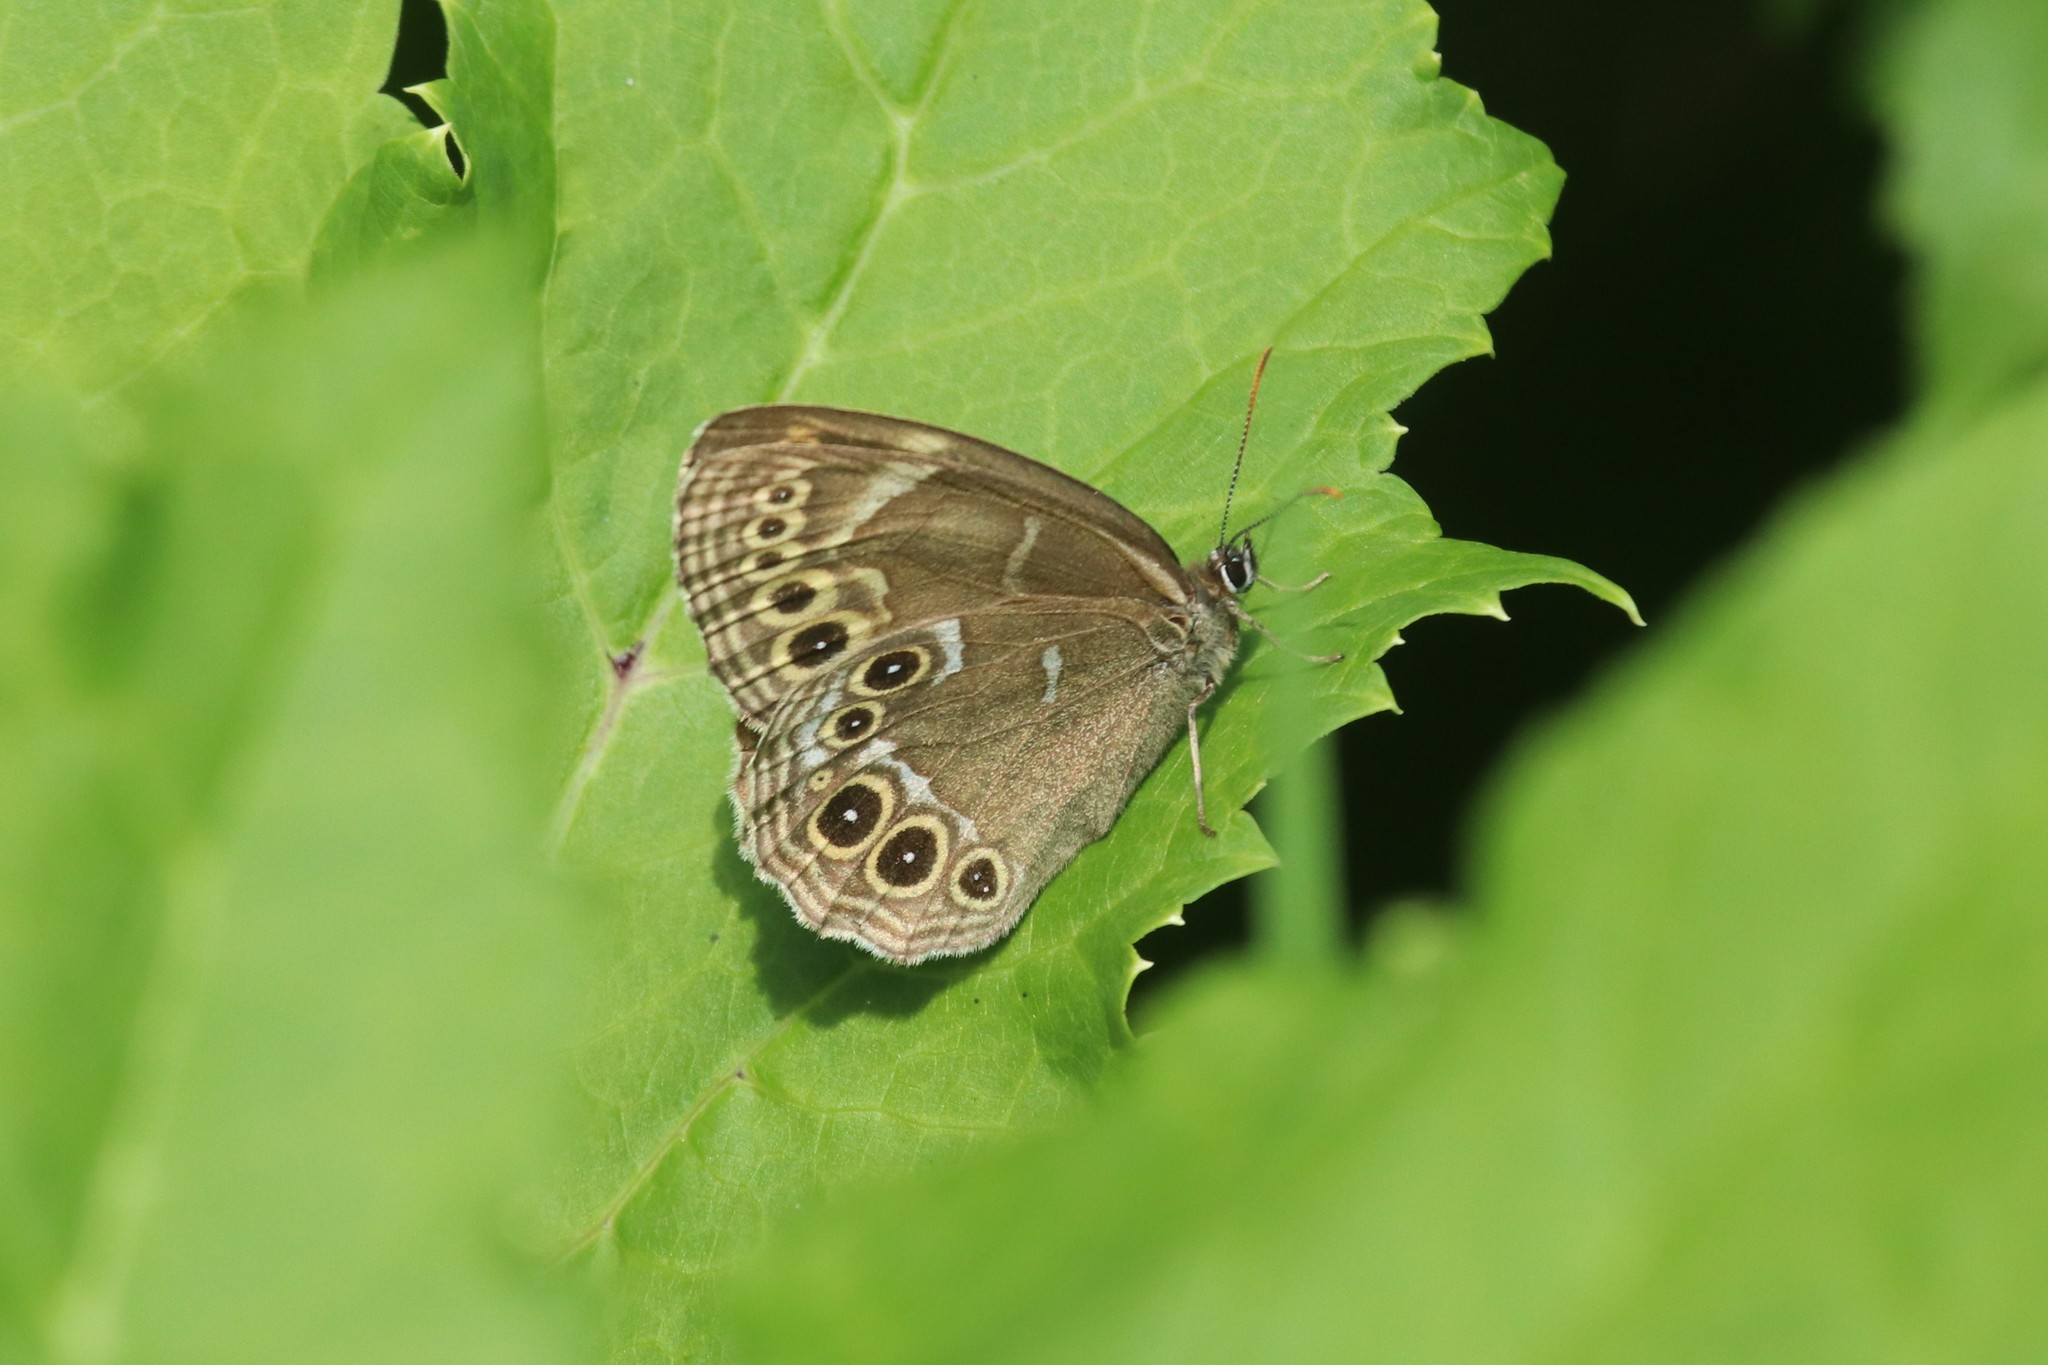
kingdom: Animalia
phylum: Arthropoda
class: Insecta
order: Lepidoptera
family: Nymphalidae
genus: Pararge
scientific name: Pararge Lopinga achine
